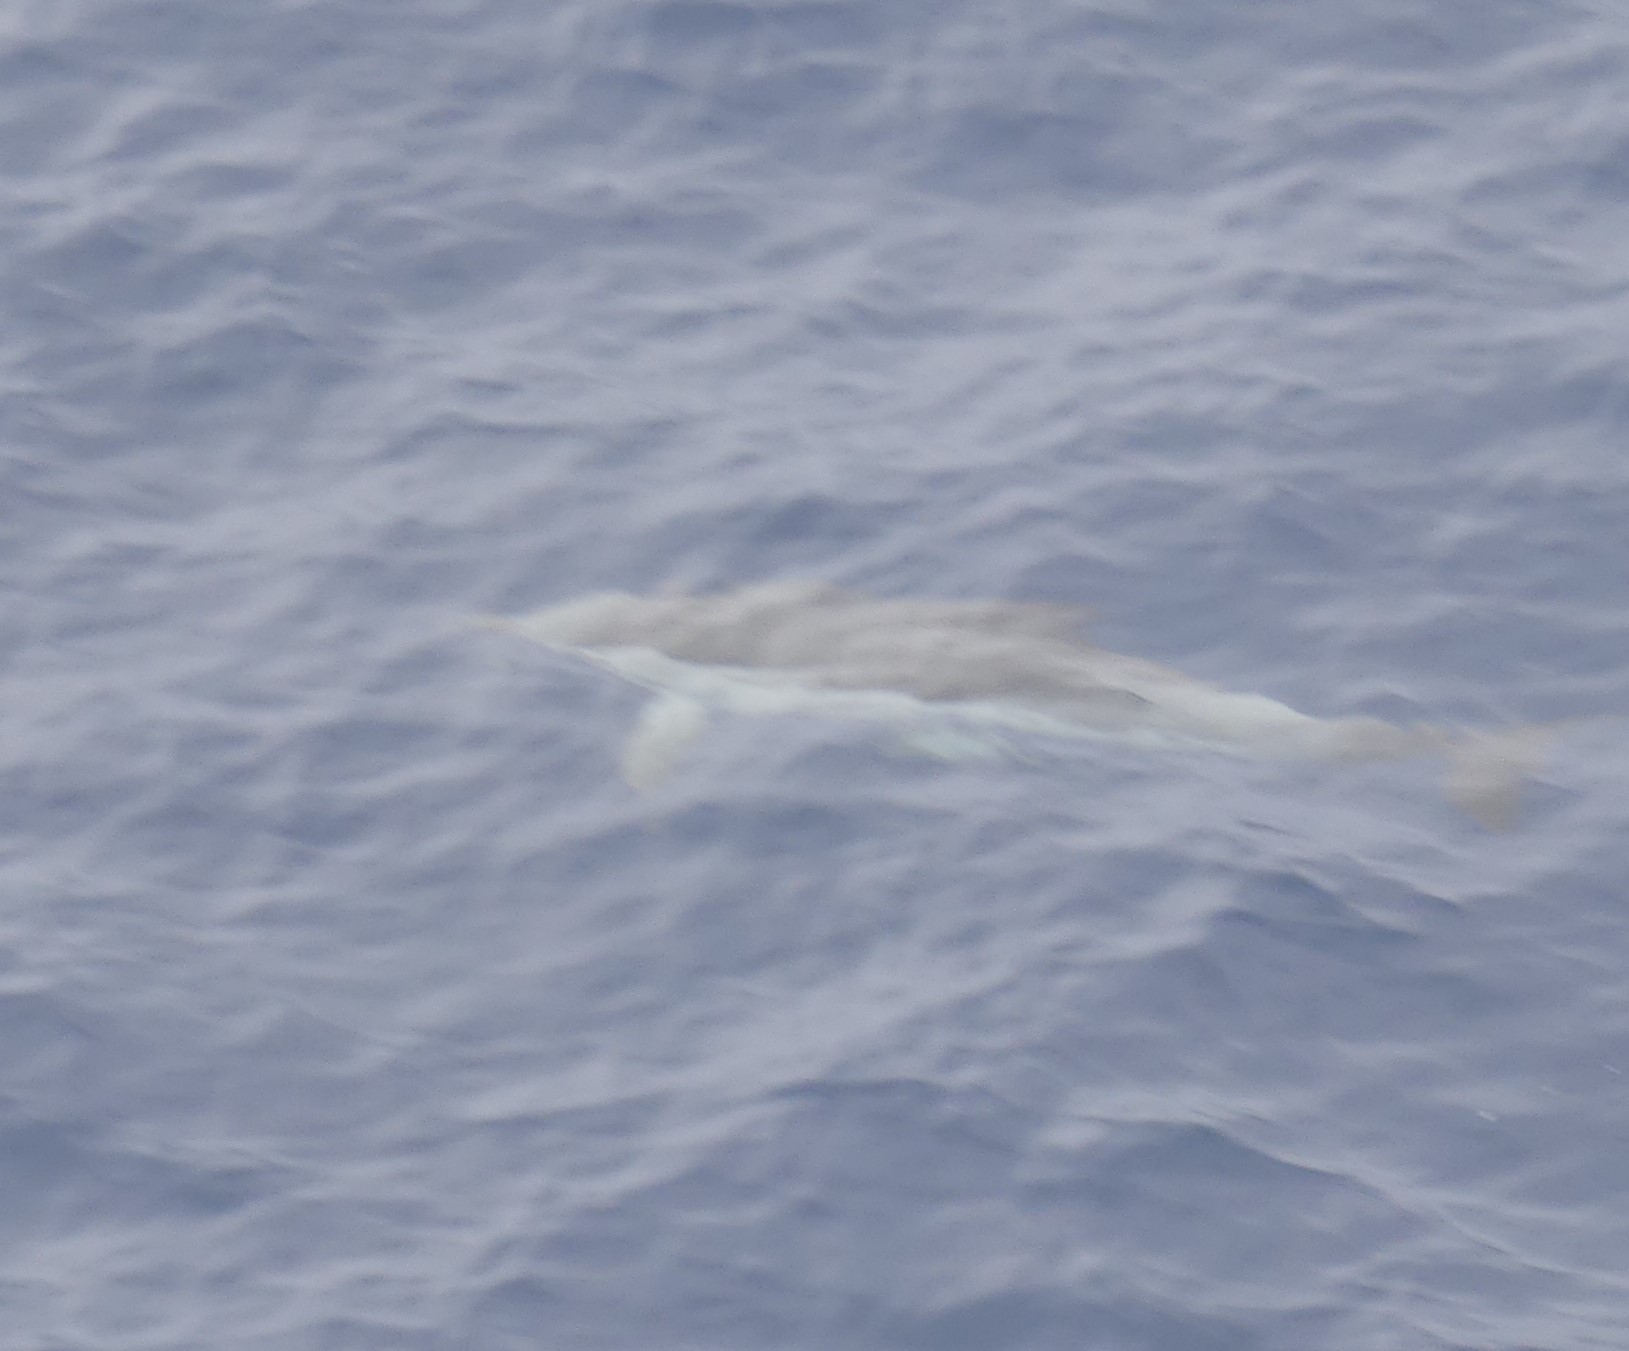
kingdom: Animalia
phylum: Chordata
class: Mammalia
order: Cetacea
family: Delphinidae
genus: Stenella
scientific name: Stenella coeruleoalba
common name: Striped dolphin
